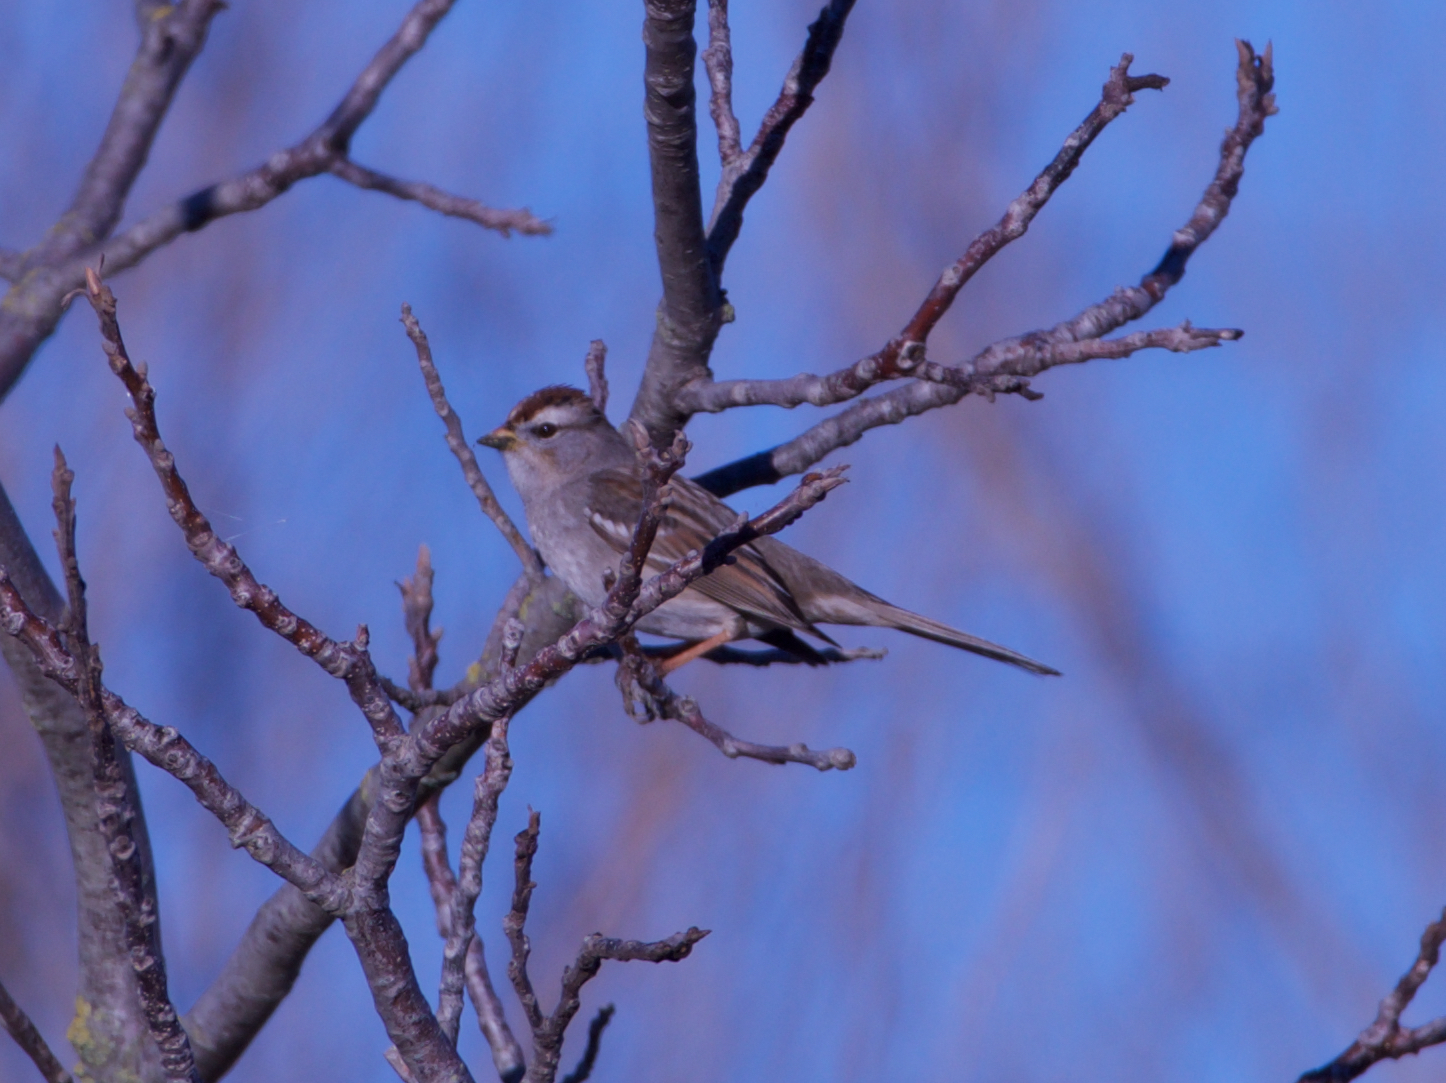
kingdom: Animalia
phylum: Chordata
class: Aves
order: Passeriformes
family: Passerellidae
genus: Zonotrichia
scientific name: Zonotrichia leucophrys
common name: White-crowned sparrow
